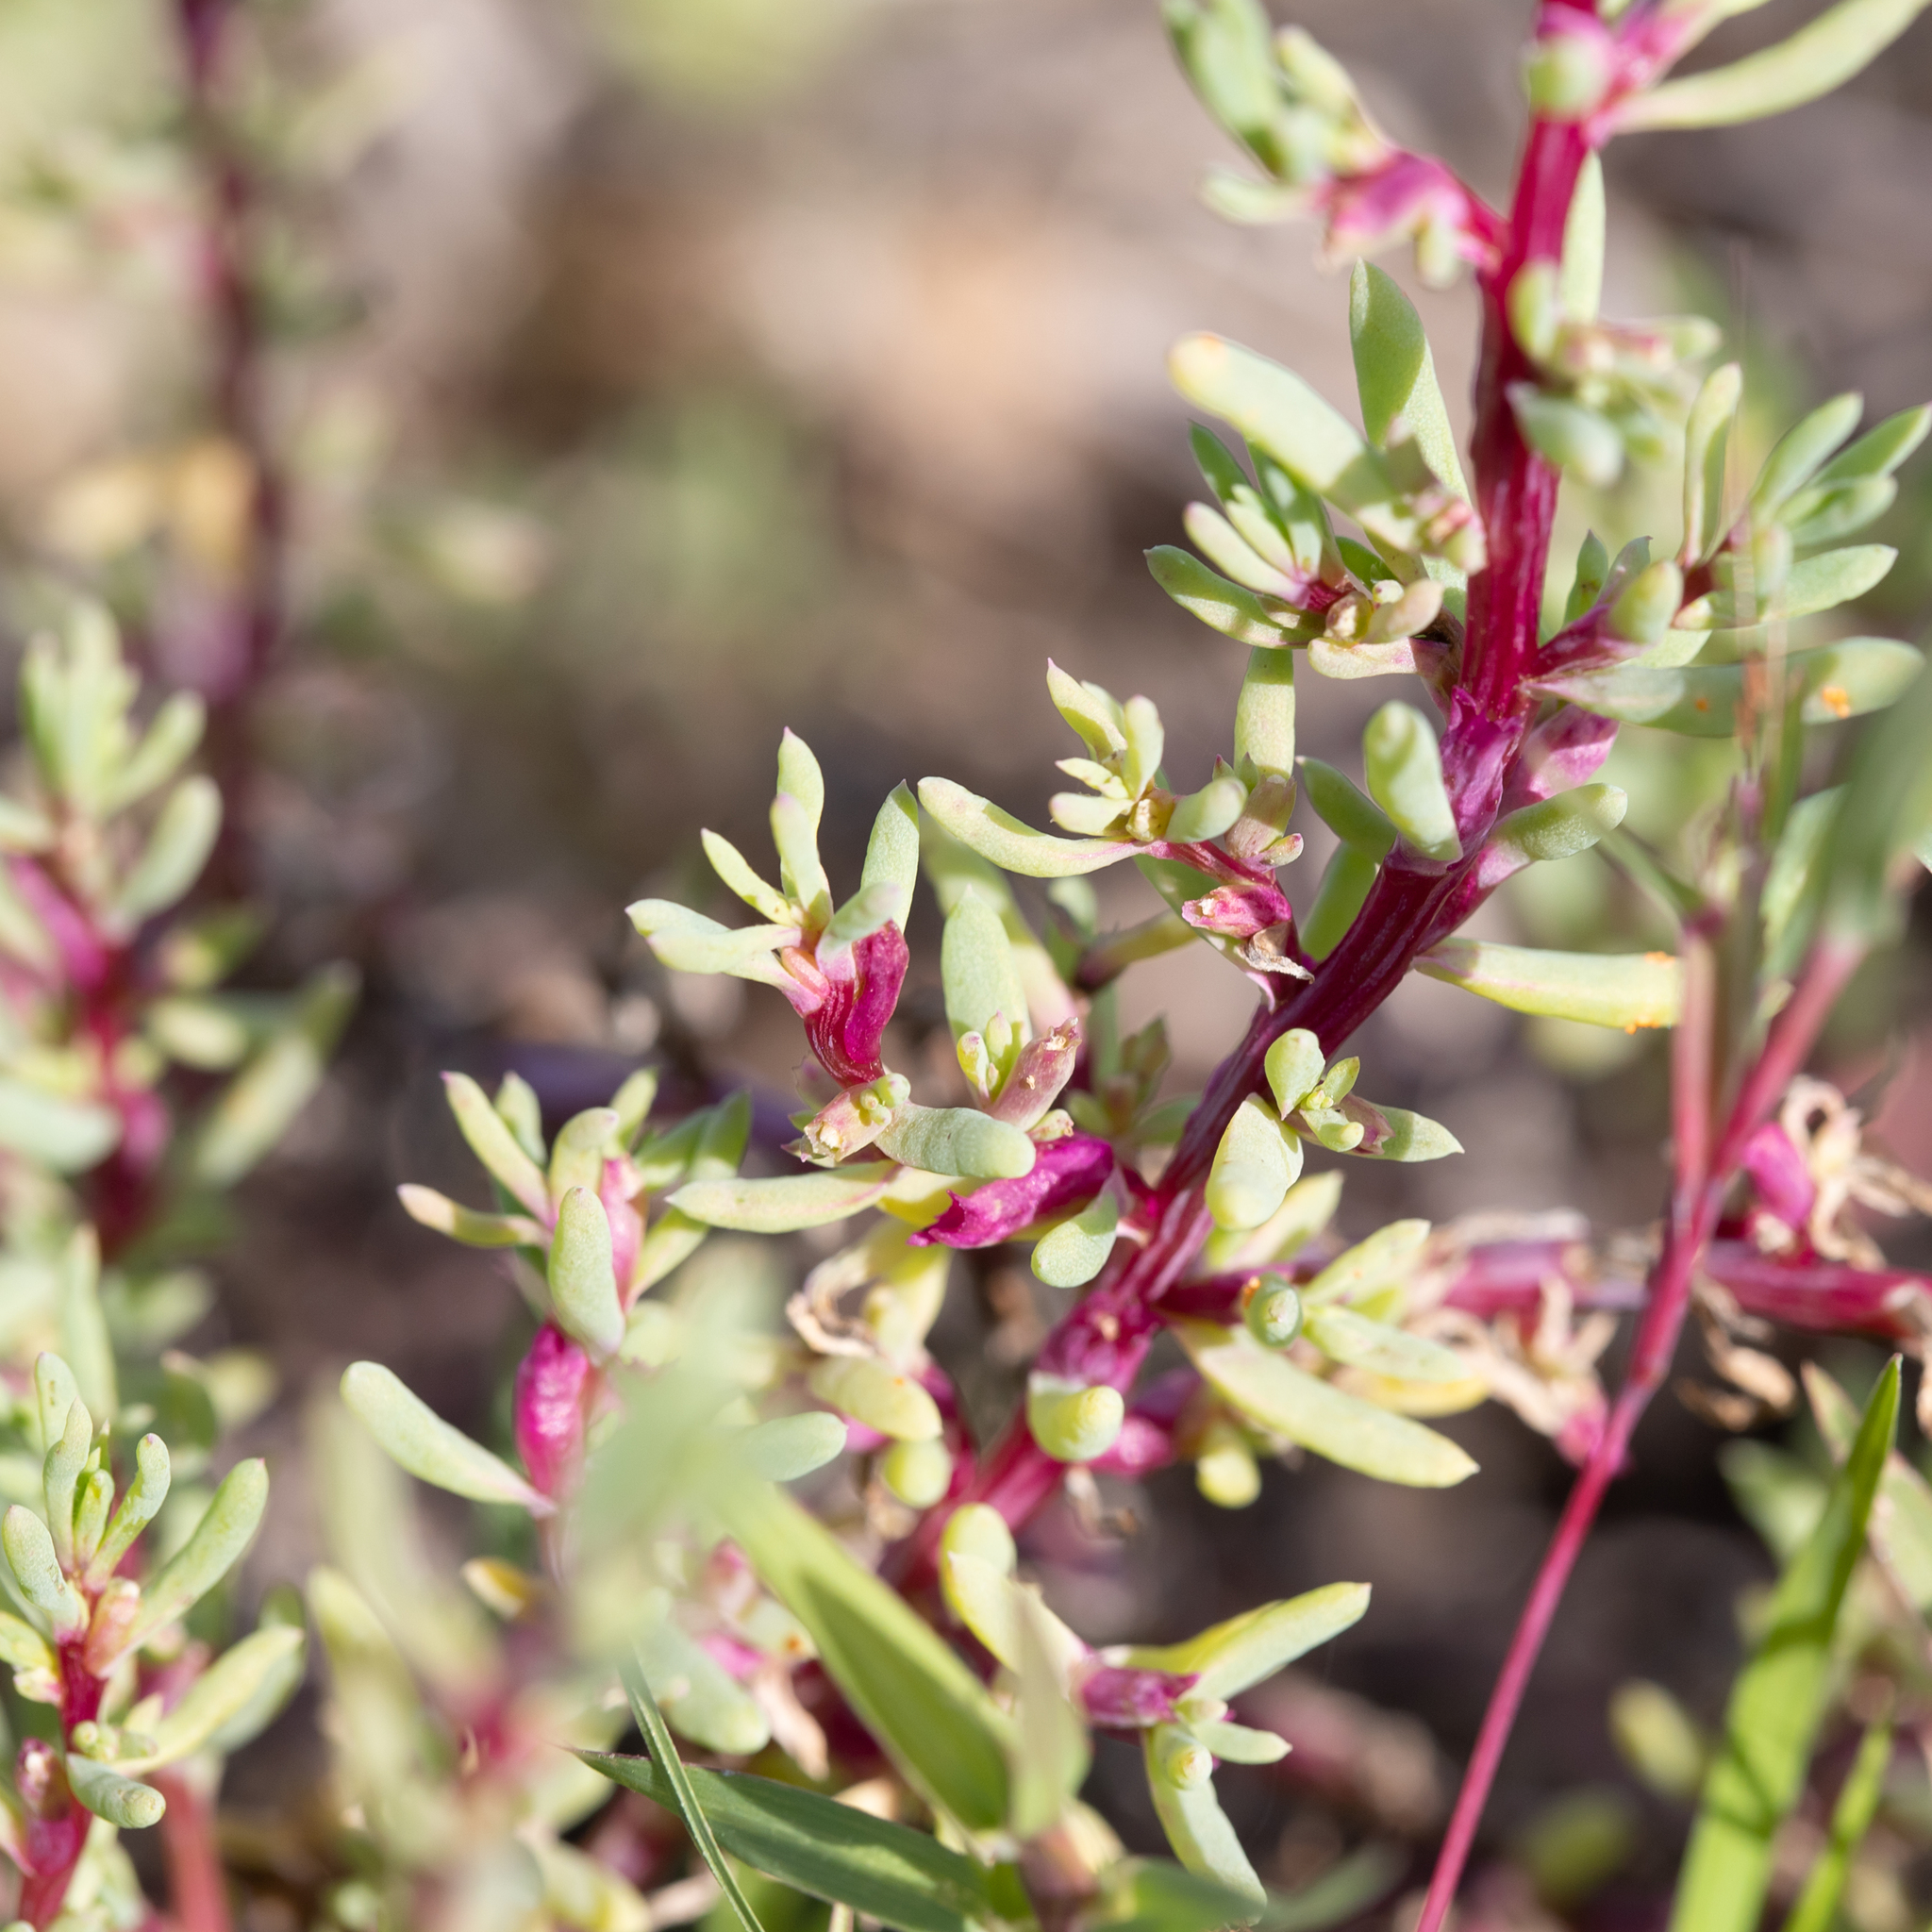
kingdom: Plantae
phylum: Tracheophyta
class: Magnoliopsida
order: Caryophyllales
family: Amaranthaceae
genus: Neobassia
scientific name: Neobassia proceriflora
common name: Desert-glasswort
